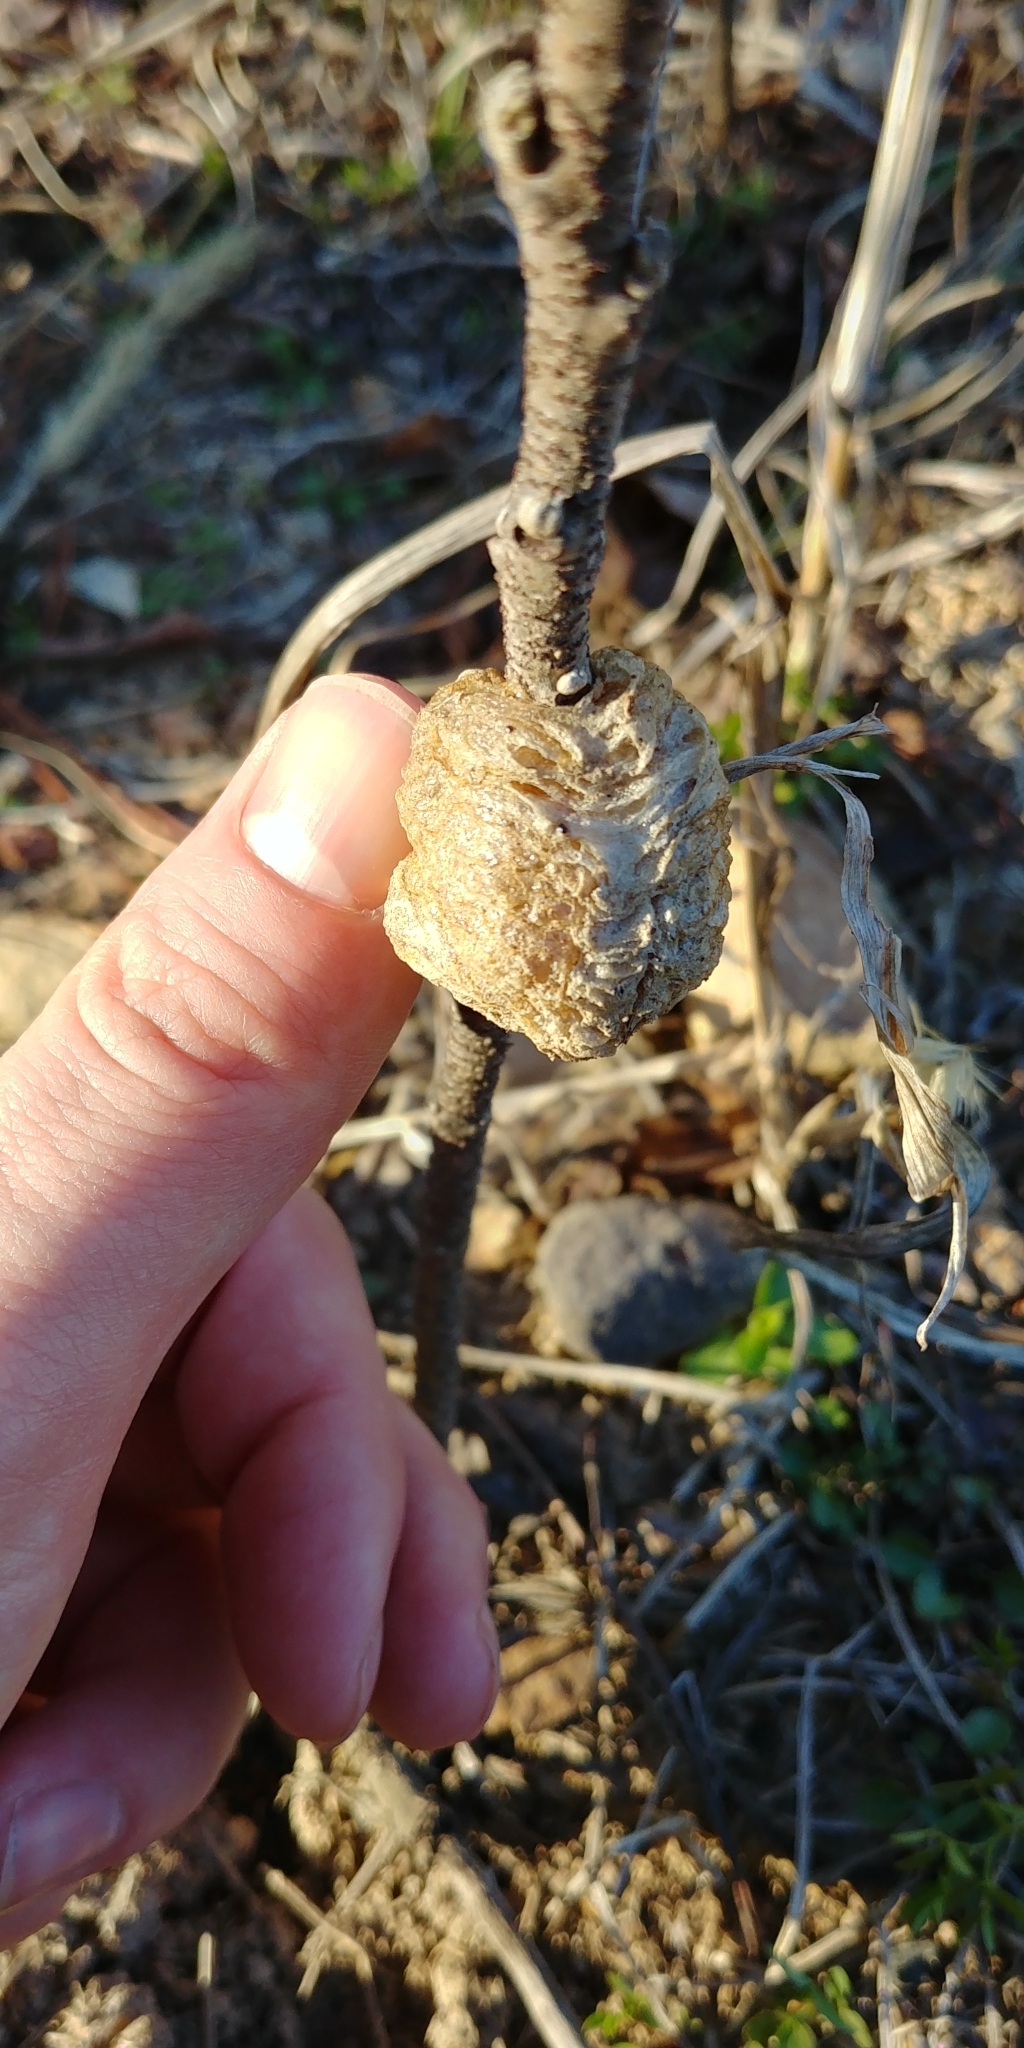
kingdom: Animalia
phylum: Arthropoda
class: Insecta
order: Mantodea
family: Mantidae
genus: Tenodera
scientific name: Tenodera sinensis
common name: Chinese mantis
